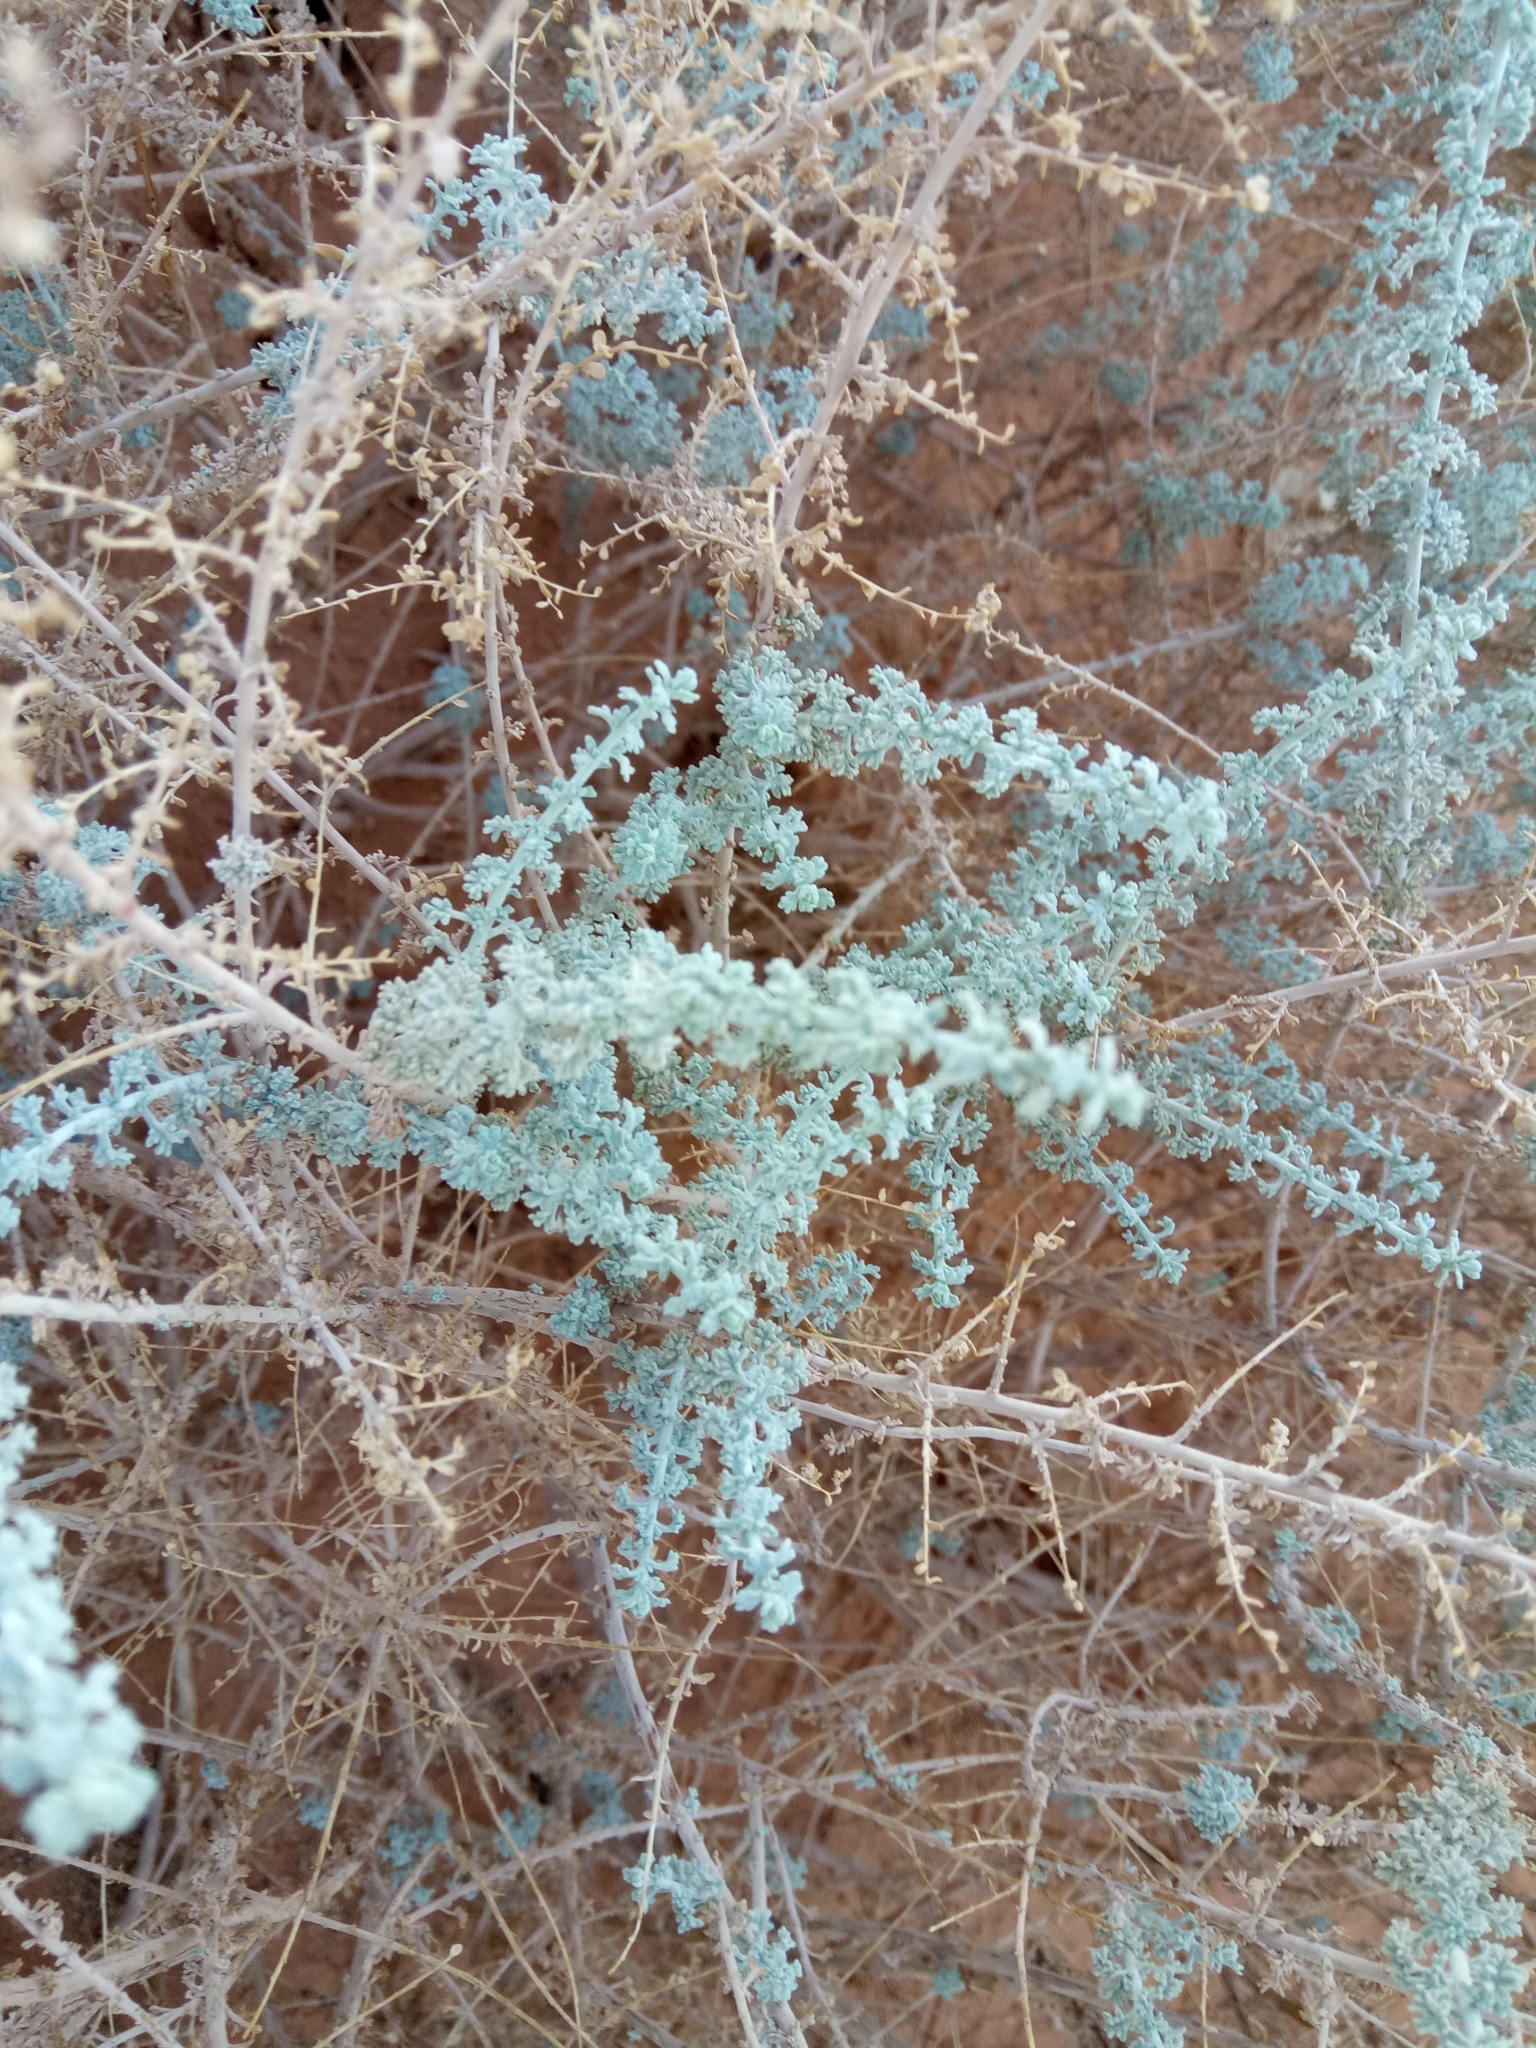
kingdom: Plantae
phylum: Tracheophyta
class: Magnoliopsida
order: Asterales
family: Asteraceae
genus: Artemisia
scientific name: Artemisia judaica
